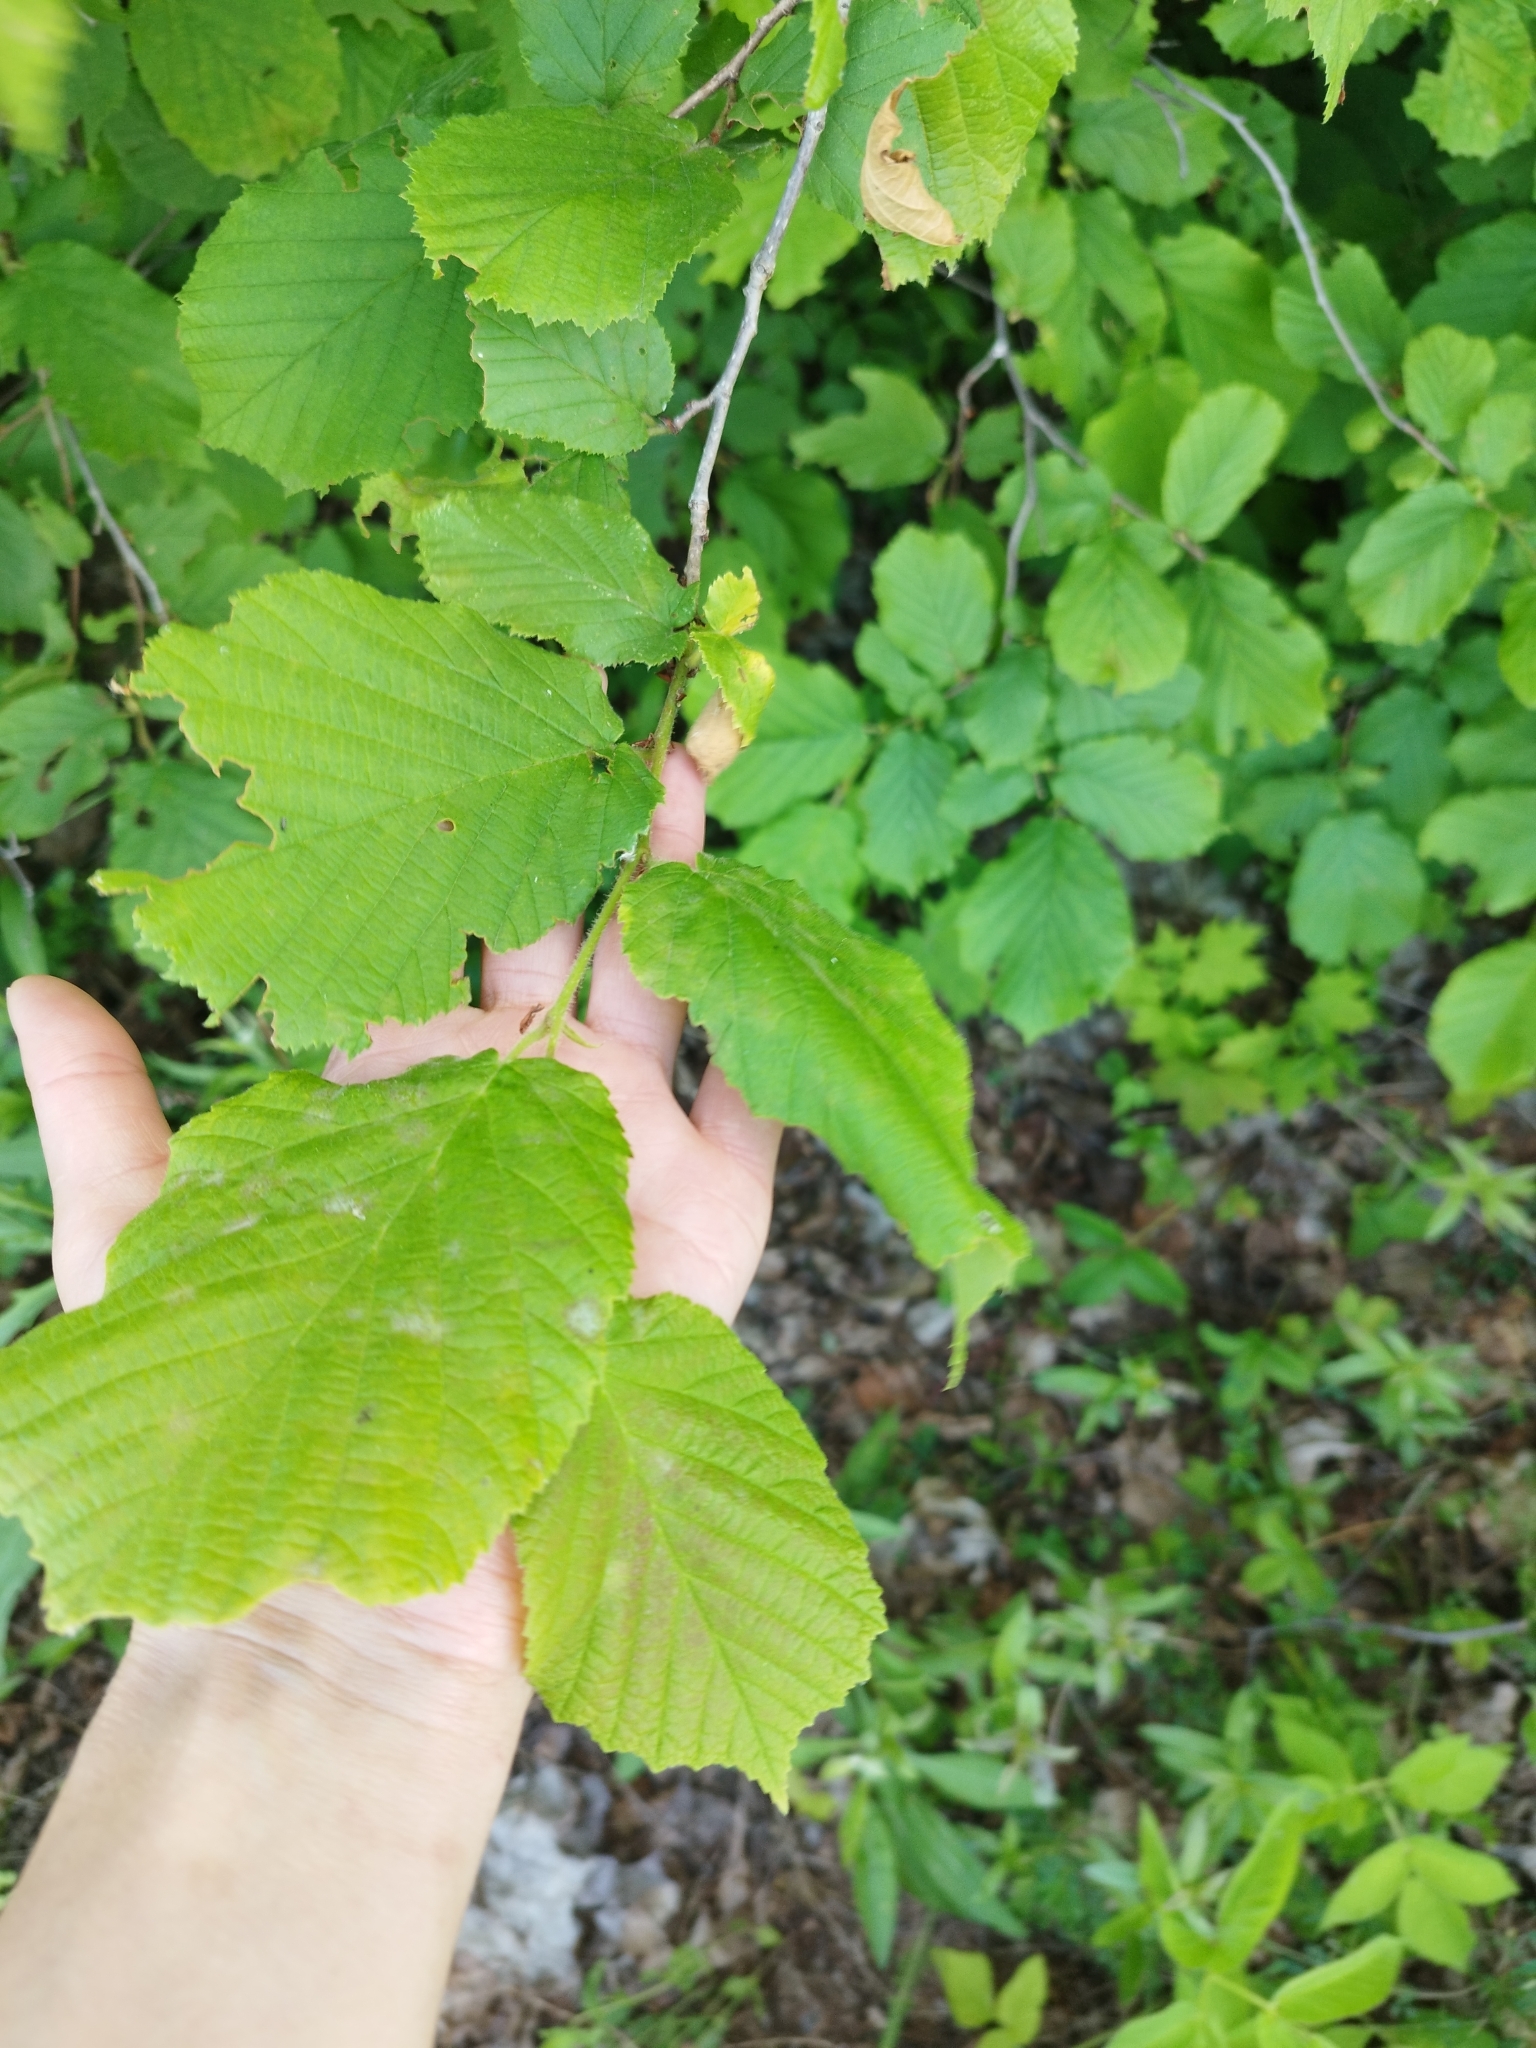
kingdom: Plantae
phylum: Tracheophyta
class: Magnoliopsida
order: Fagales
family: Betulaceae
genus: Corylus
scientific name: Corylus avellana
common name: European hazel
